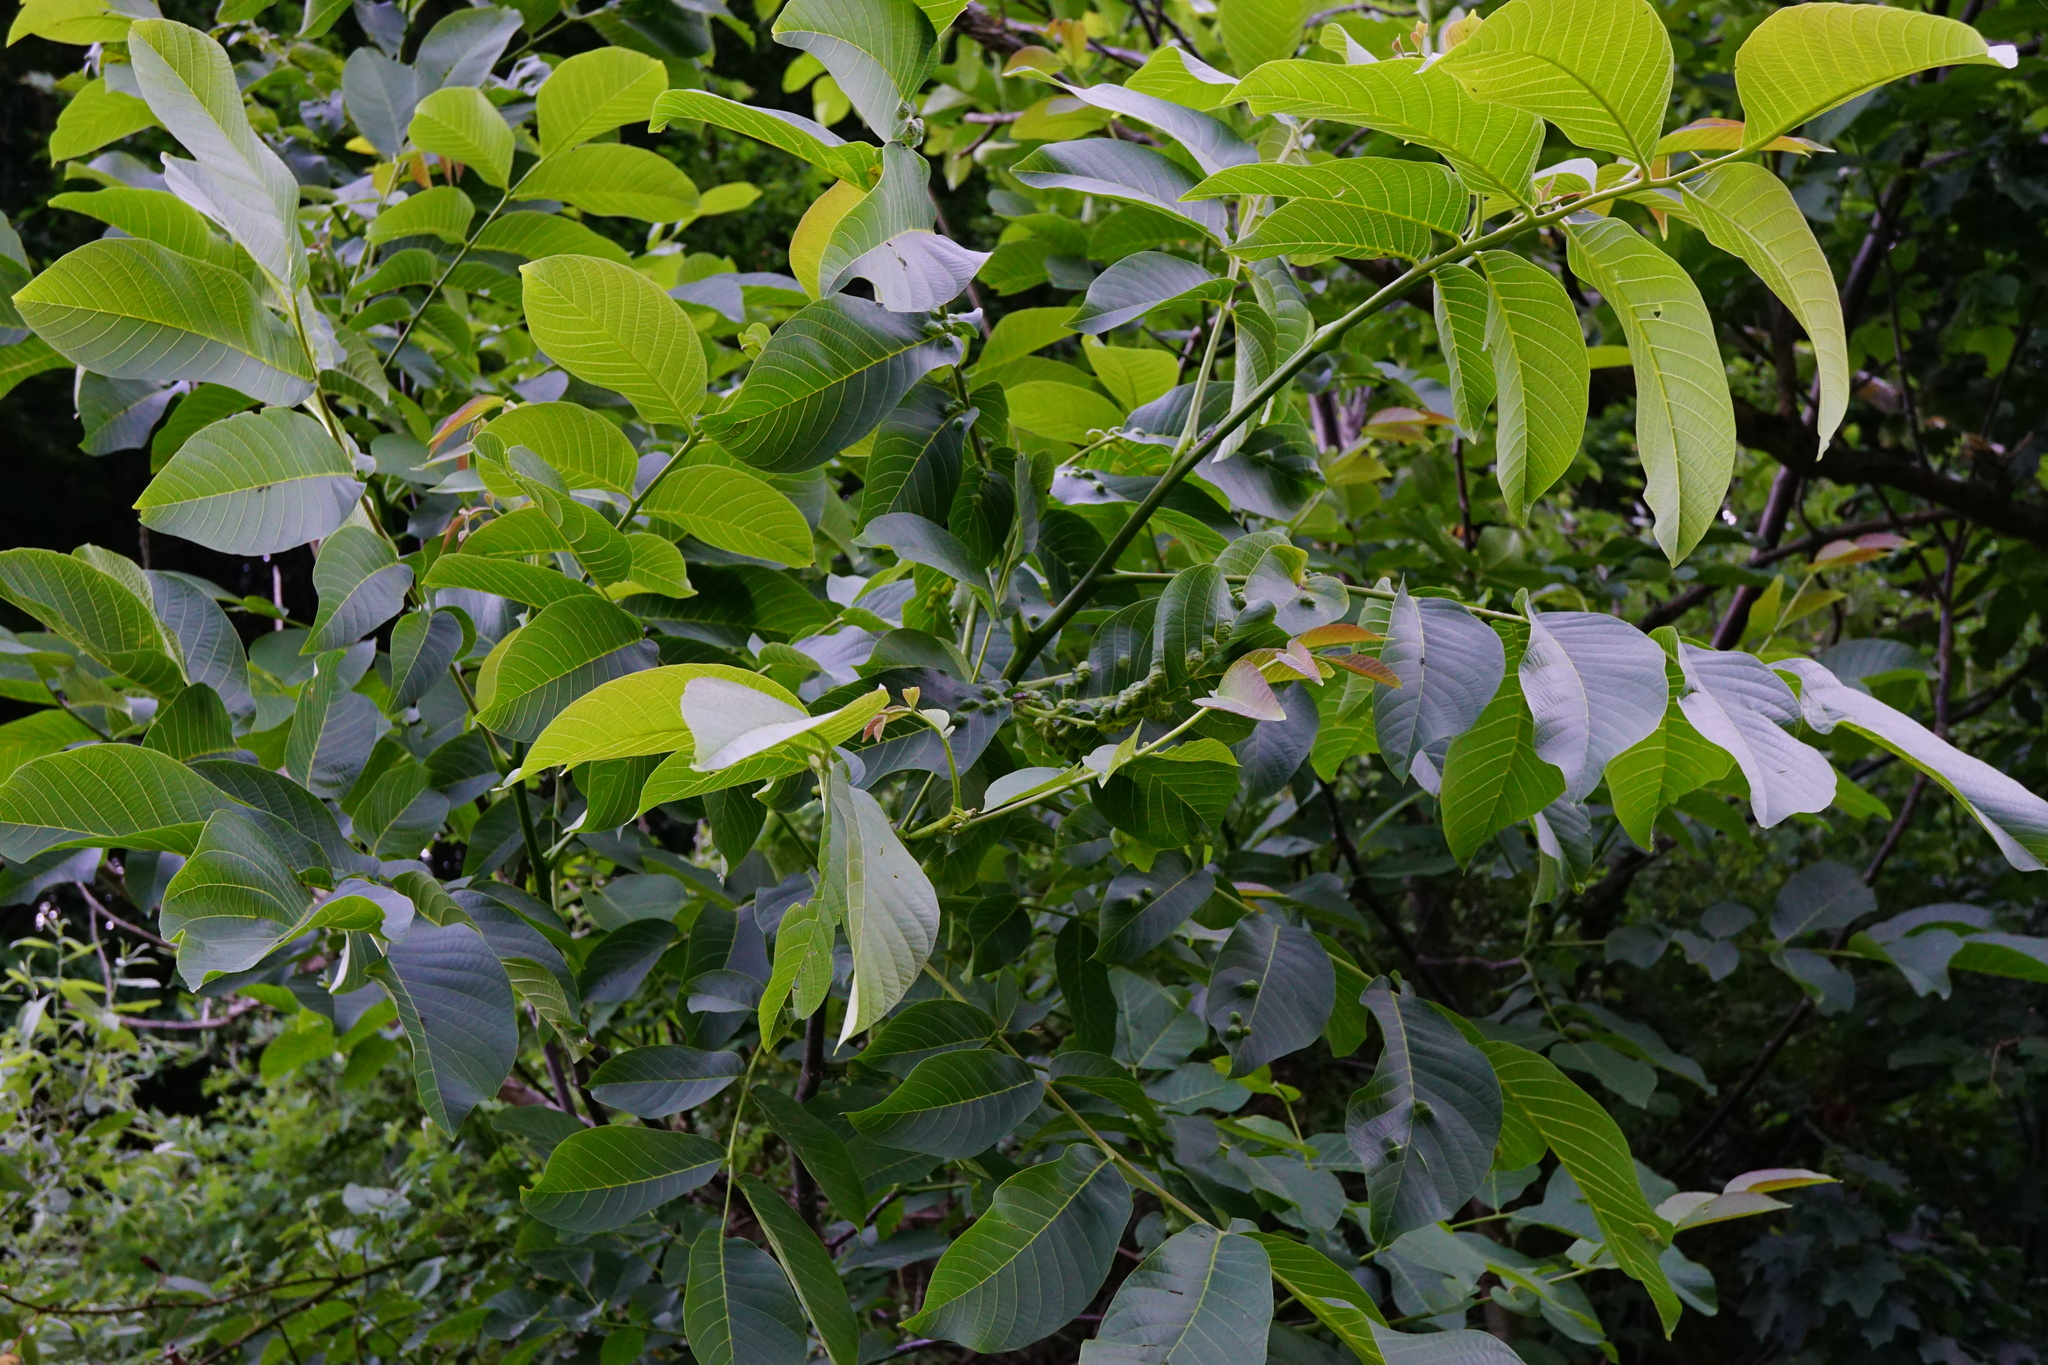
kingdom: Plantae
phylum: Tracheophyta
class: Magnoliopsida
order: Fagales
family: Juglandaceae
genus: Juglans
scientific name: Juglans regia
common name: Walnut
